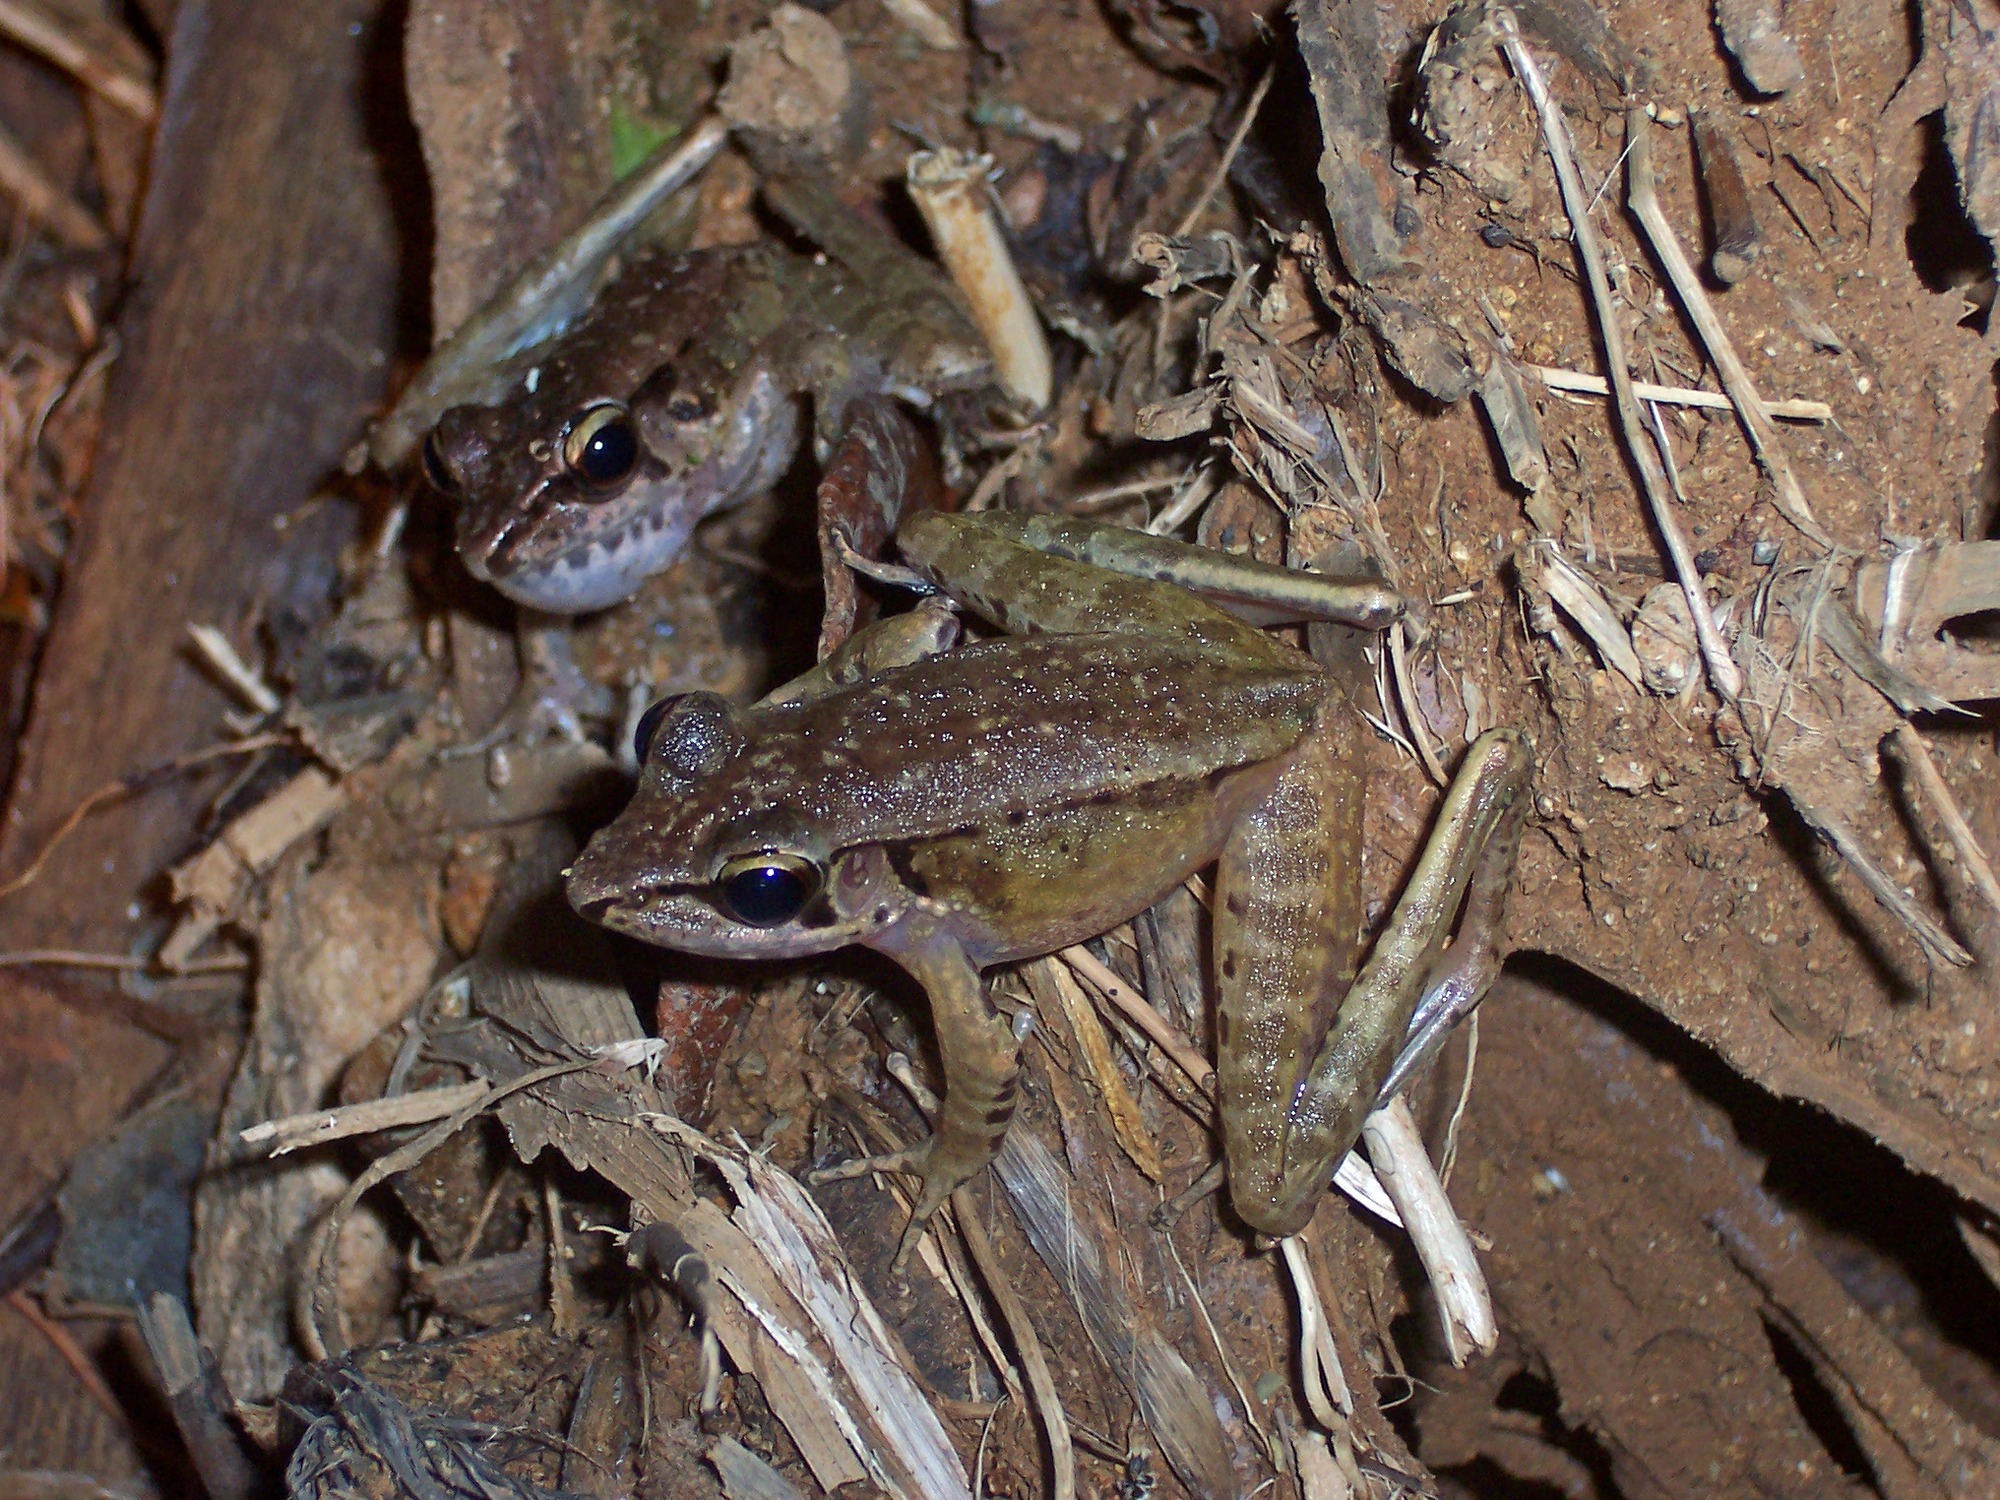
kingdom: Animalia
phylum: Chordata
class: Amphibia
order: Anura
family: Ranidae
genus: Huia
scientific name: Huia masonii
